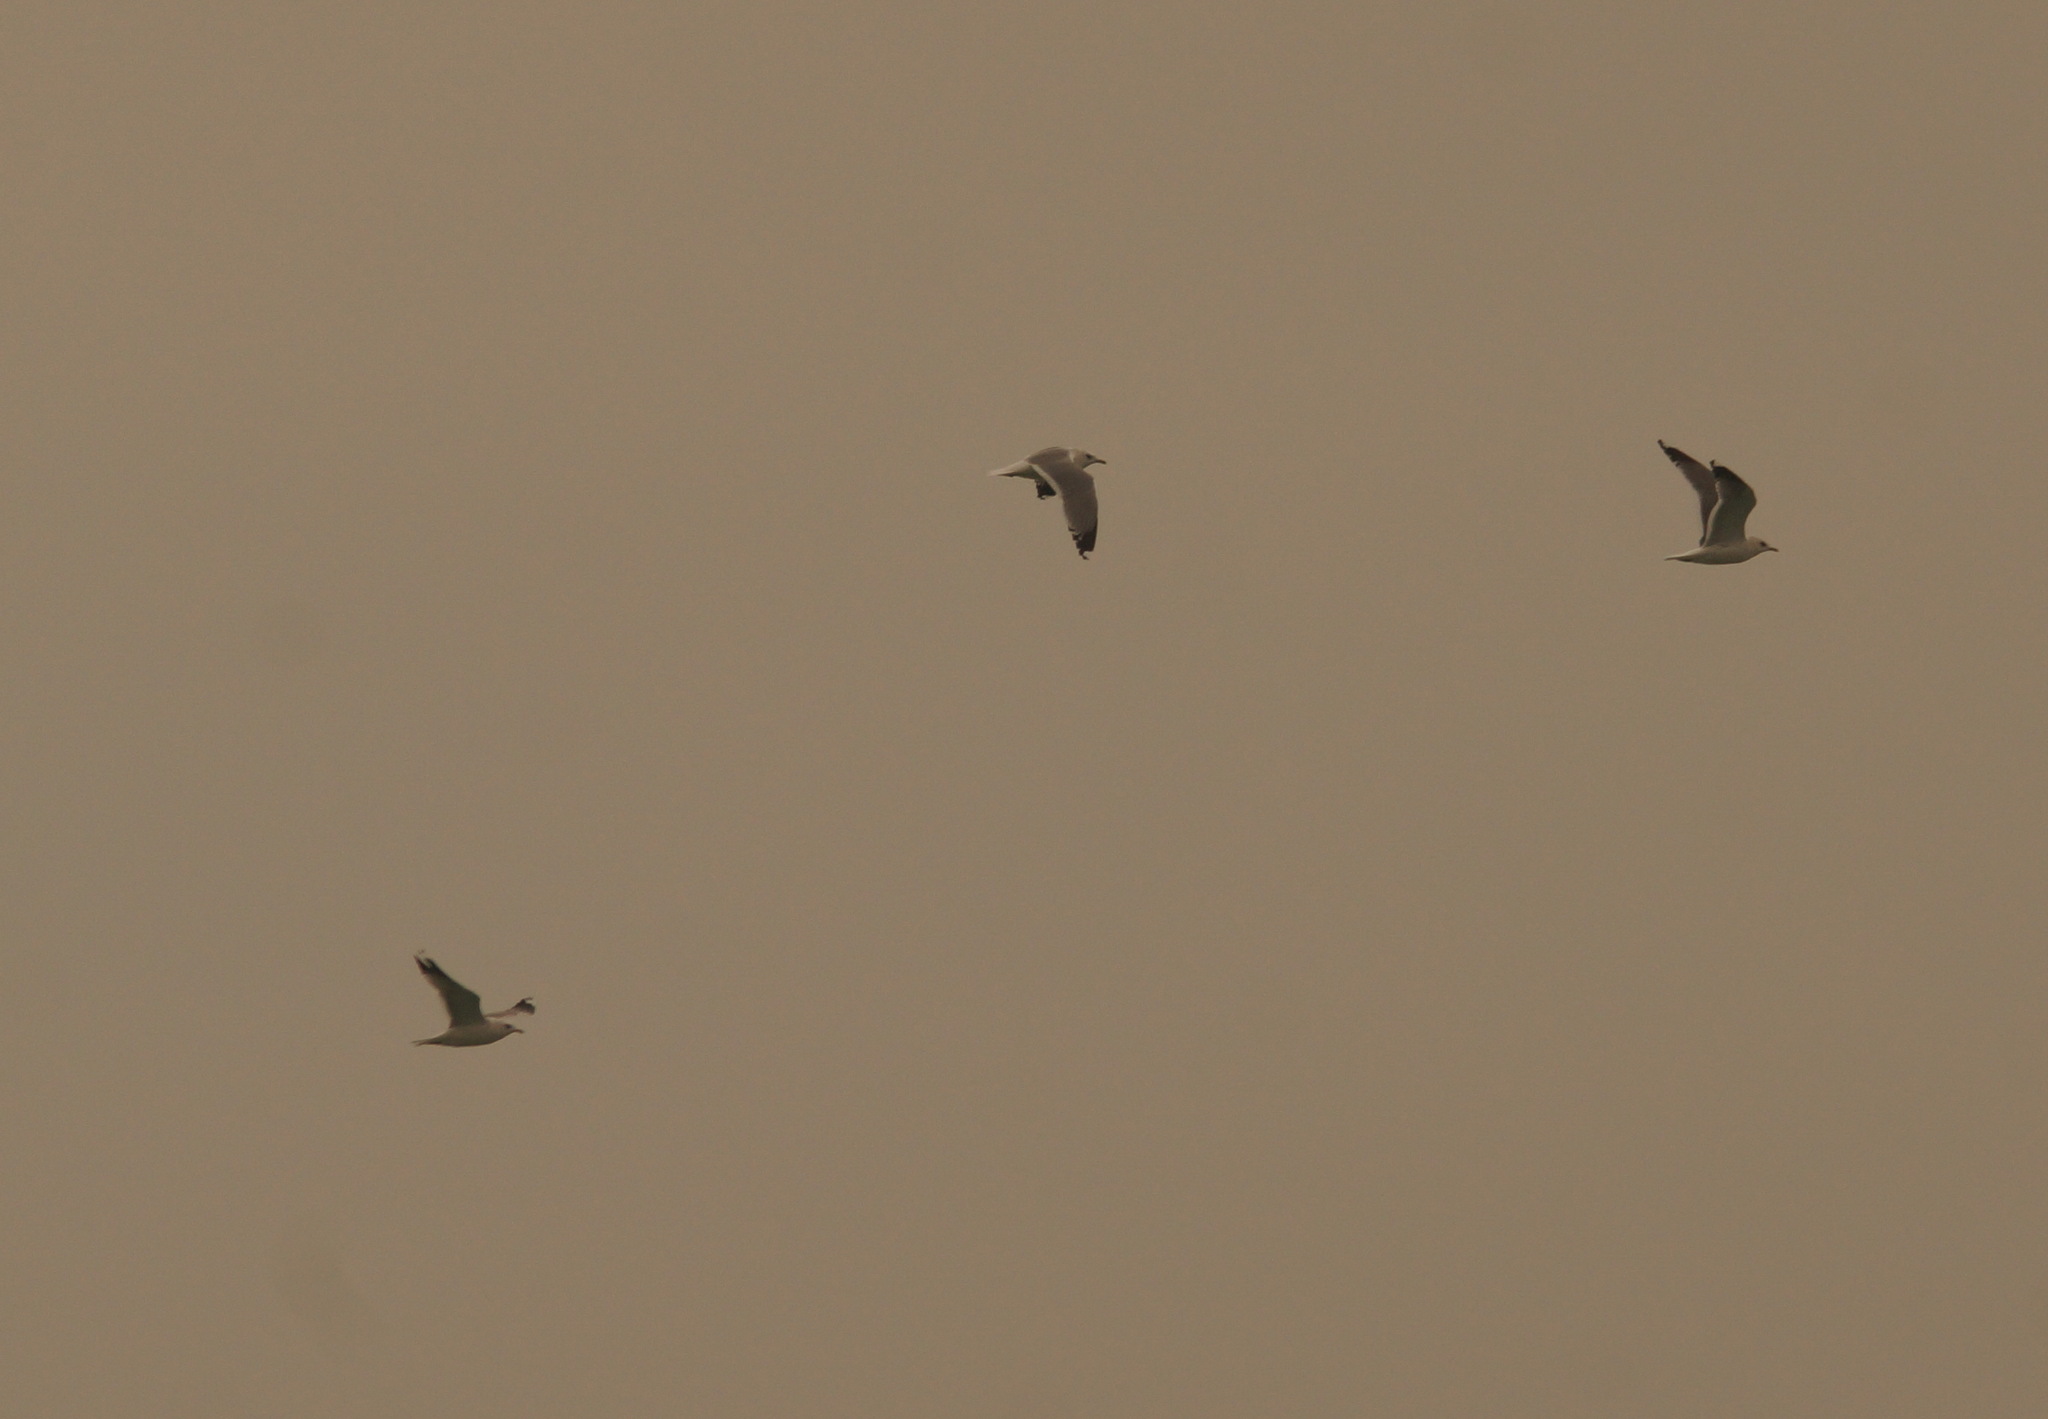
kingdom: Animalia
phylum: Chordata
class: Aves
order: Charadriiformes
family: Laridae
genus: Larus
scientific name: Larus canus
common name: Mew gull
